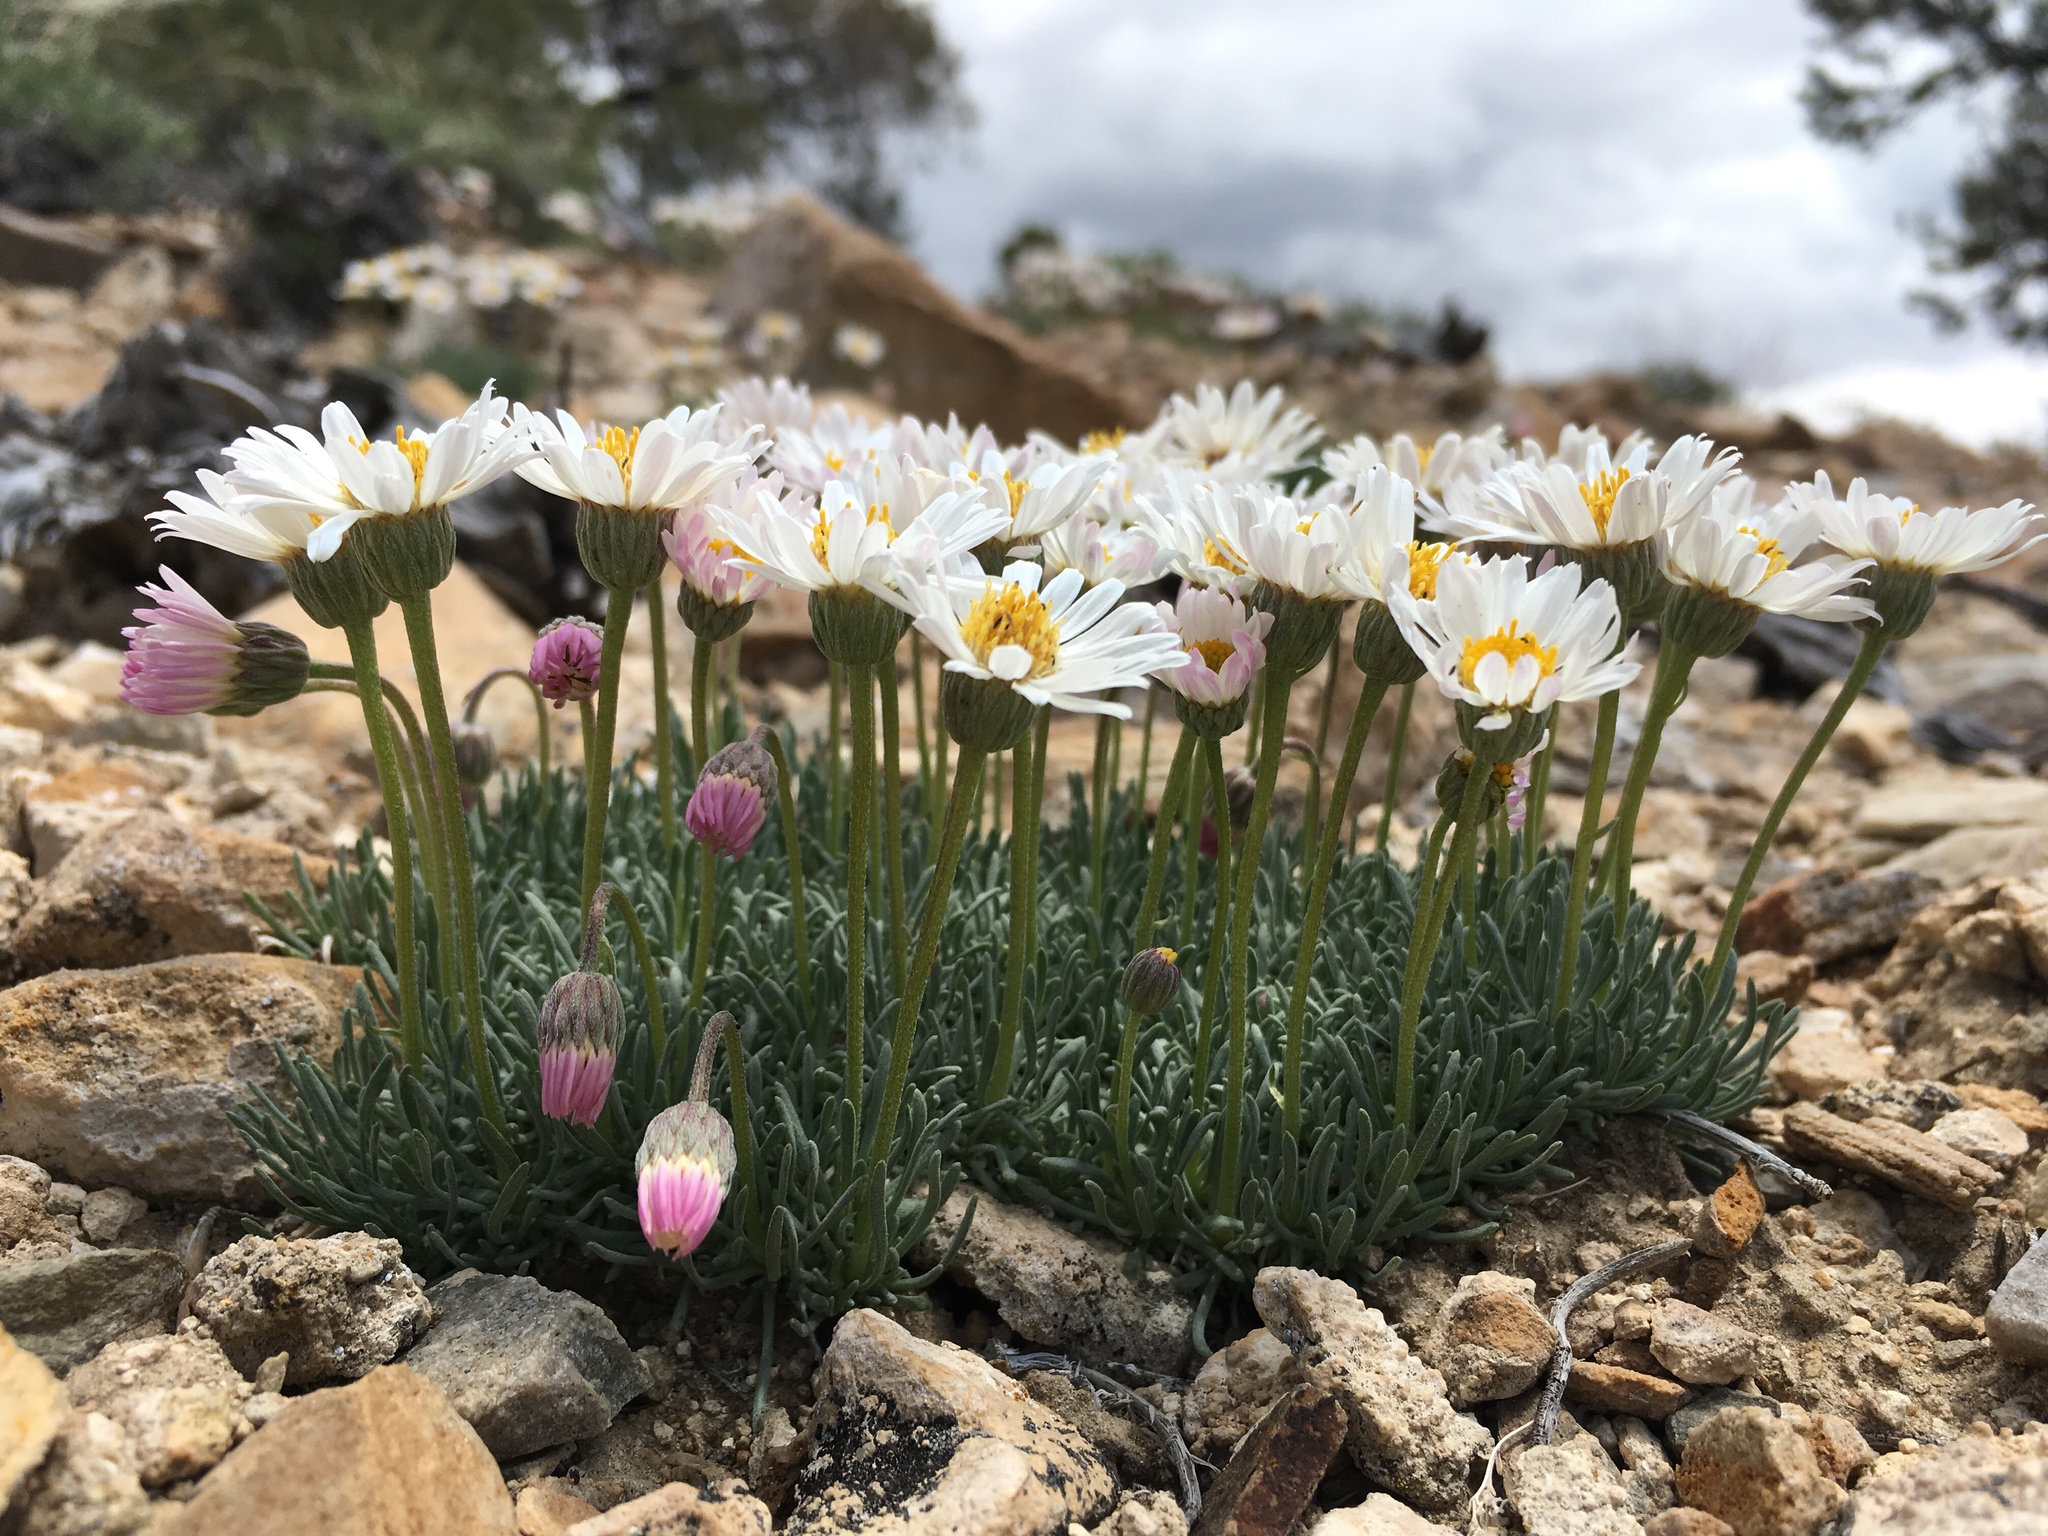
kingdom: Plantae
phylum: Tracheophyta
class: Magnoliopsida
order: Asterales
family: Asteraceae
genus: Erigeron
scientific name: Erigeron compactus
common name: Fern-leaf fleabane
